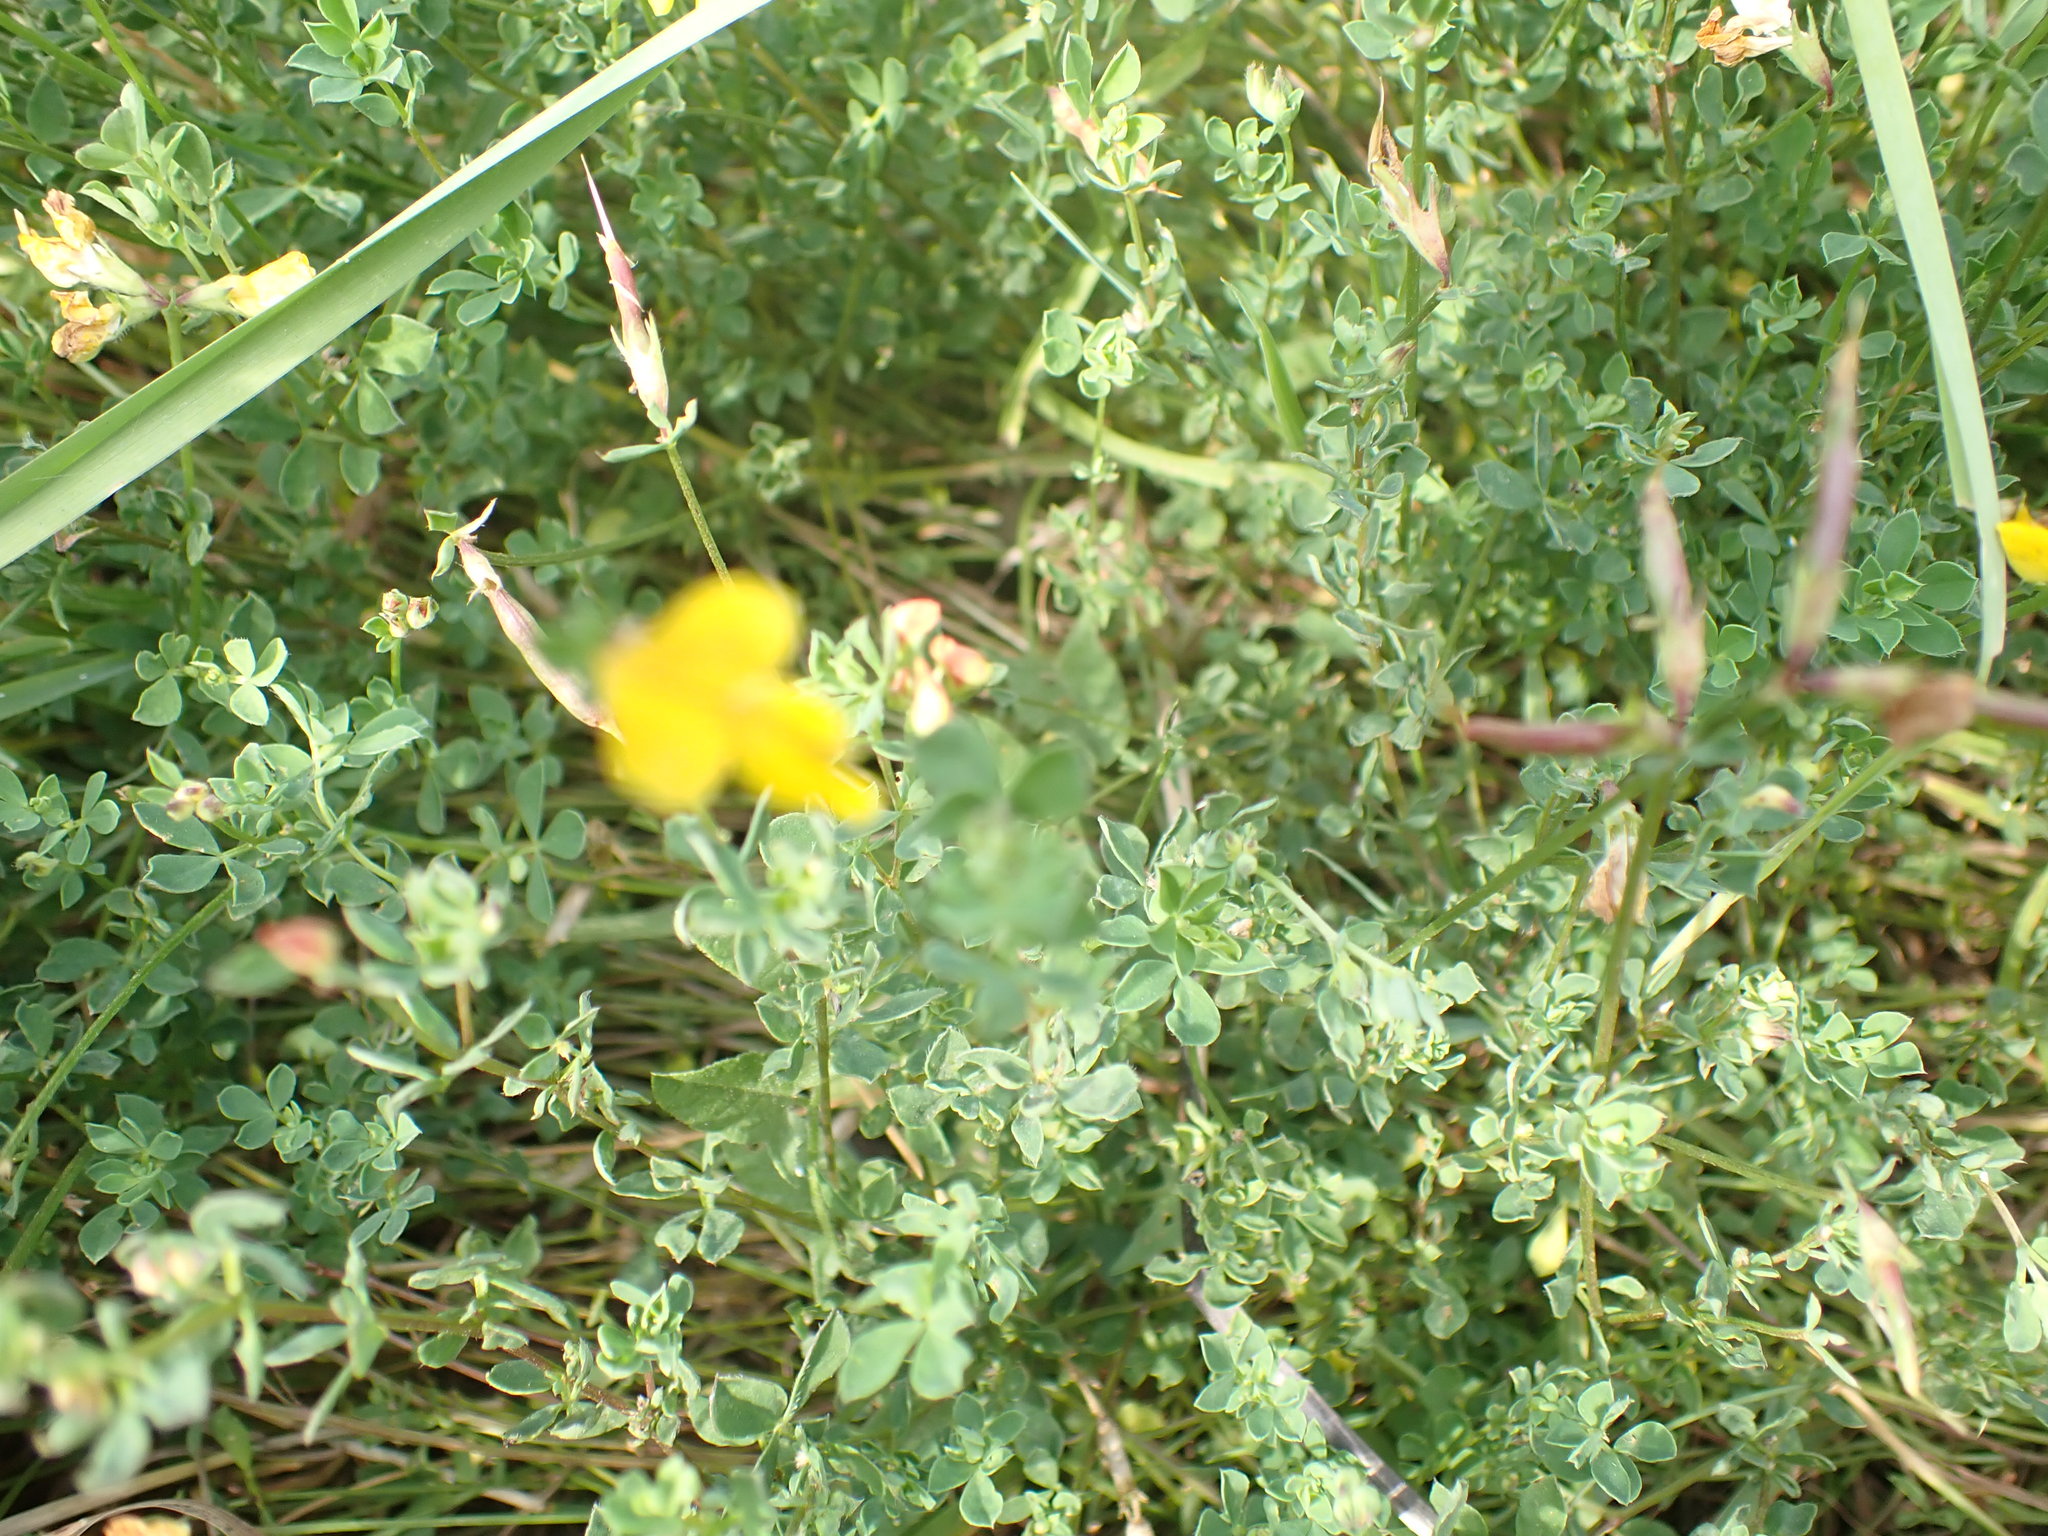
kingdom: Plantae
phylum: Tracheophyta
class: Magnoliopsida
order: Fabales
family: Fabaceae
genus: Lotus
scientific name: Lotus corniculatus
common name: Common bird's-foot-trefoil
